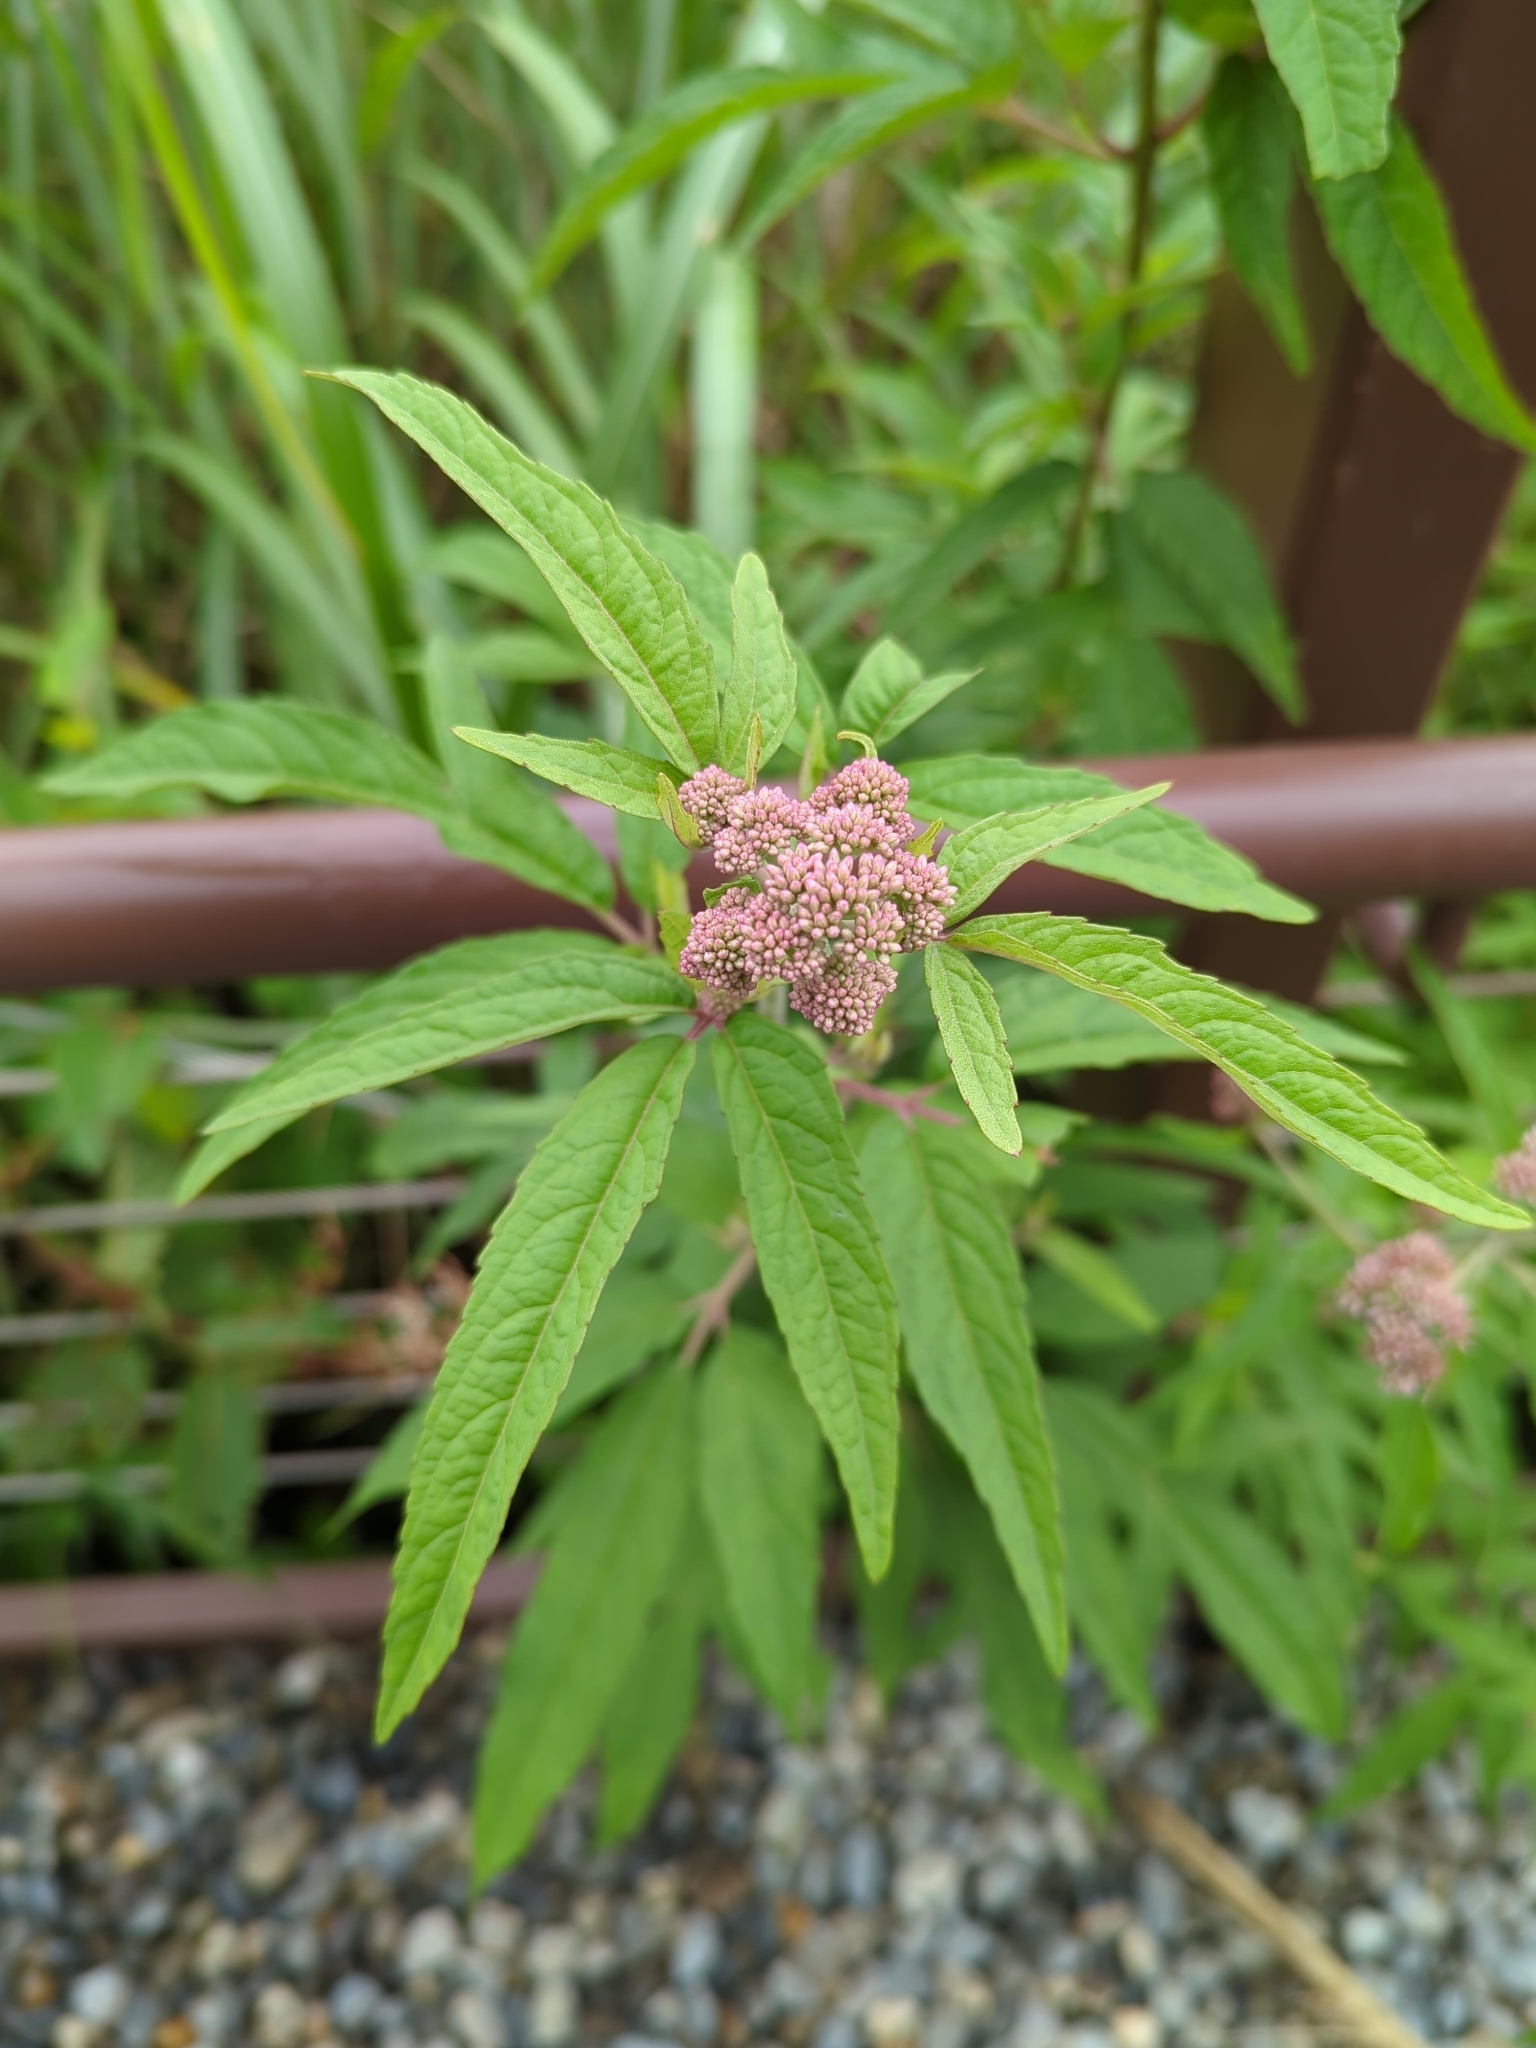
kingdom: Plantae
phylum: Tracheophyta
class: Magnoliopsida
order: Asterales
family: Asteraceae
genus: Eupatorium
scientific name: Eupatorium formosanum
